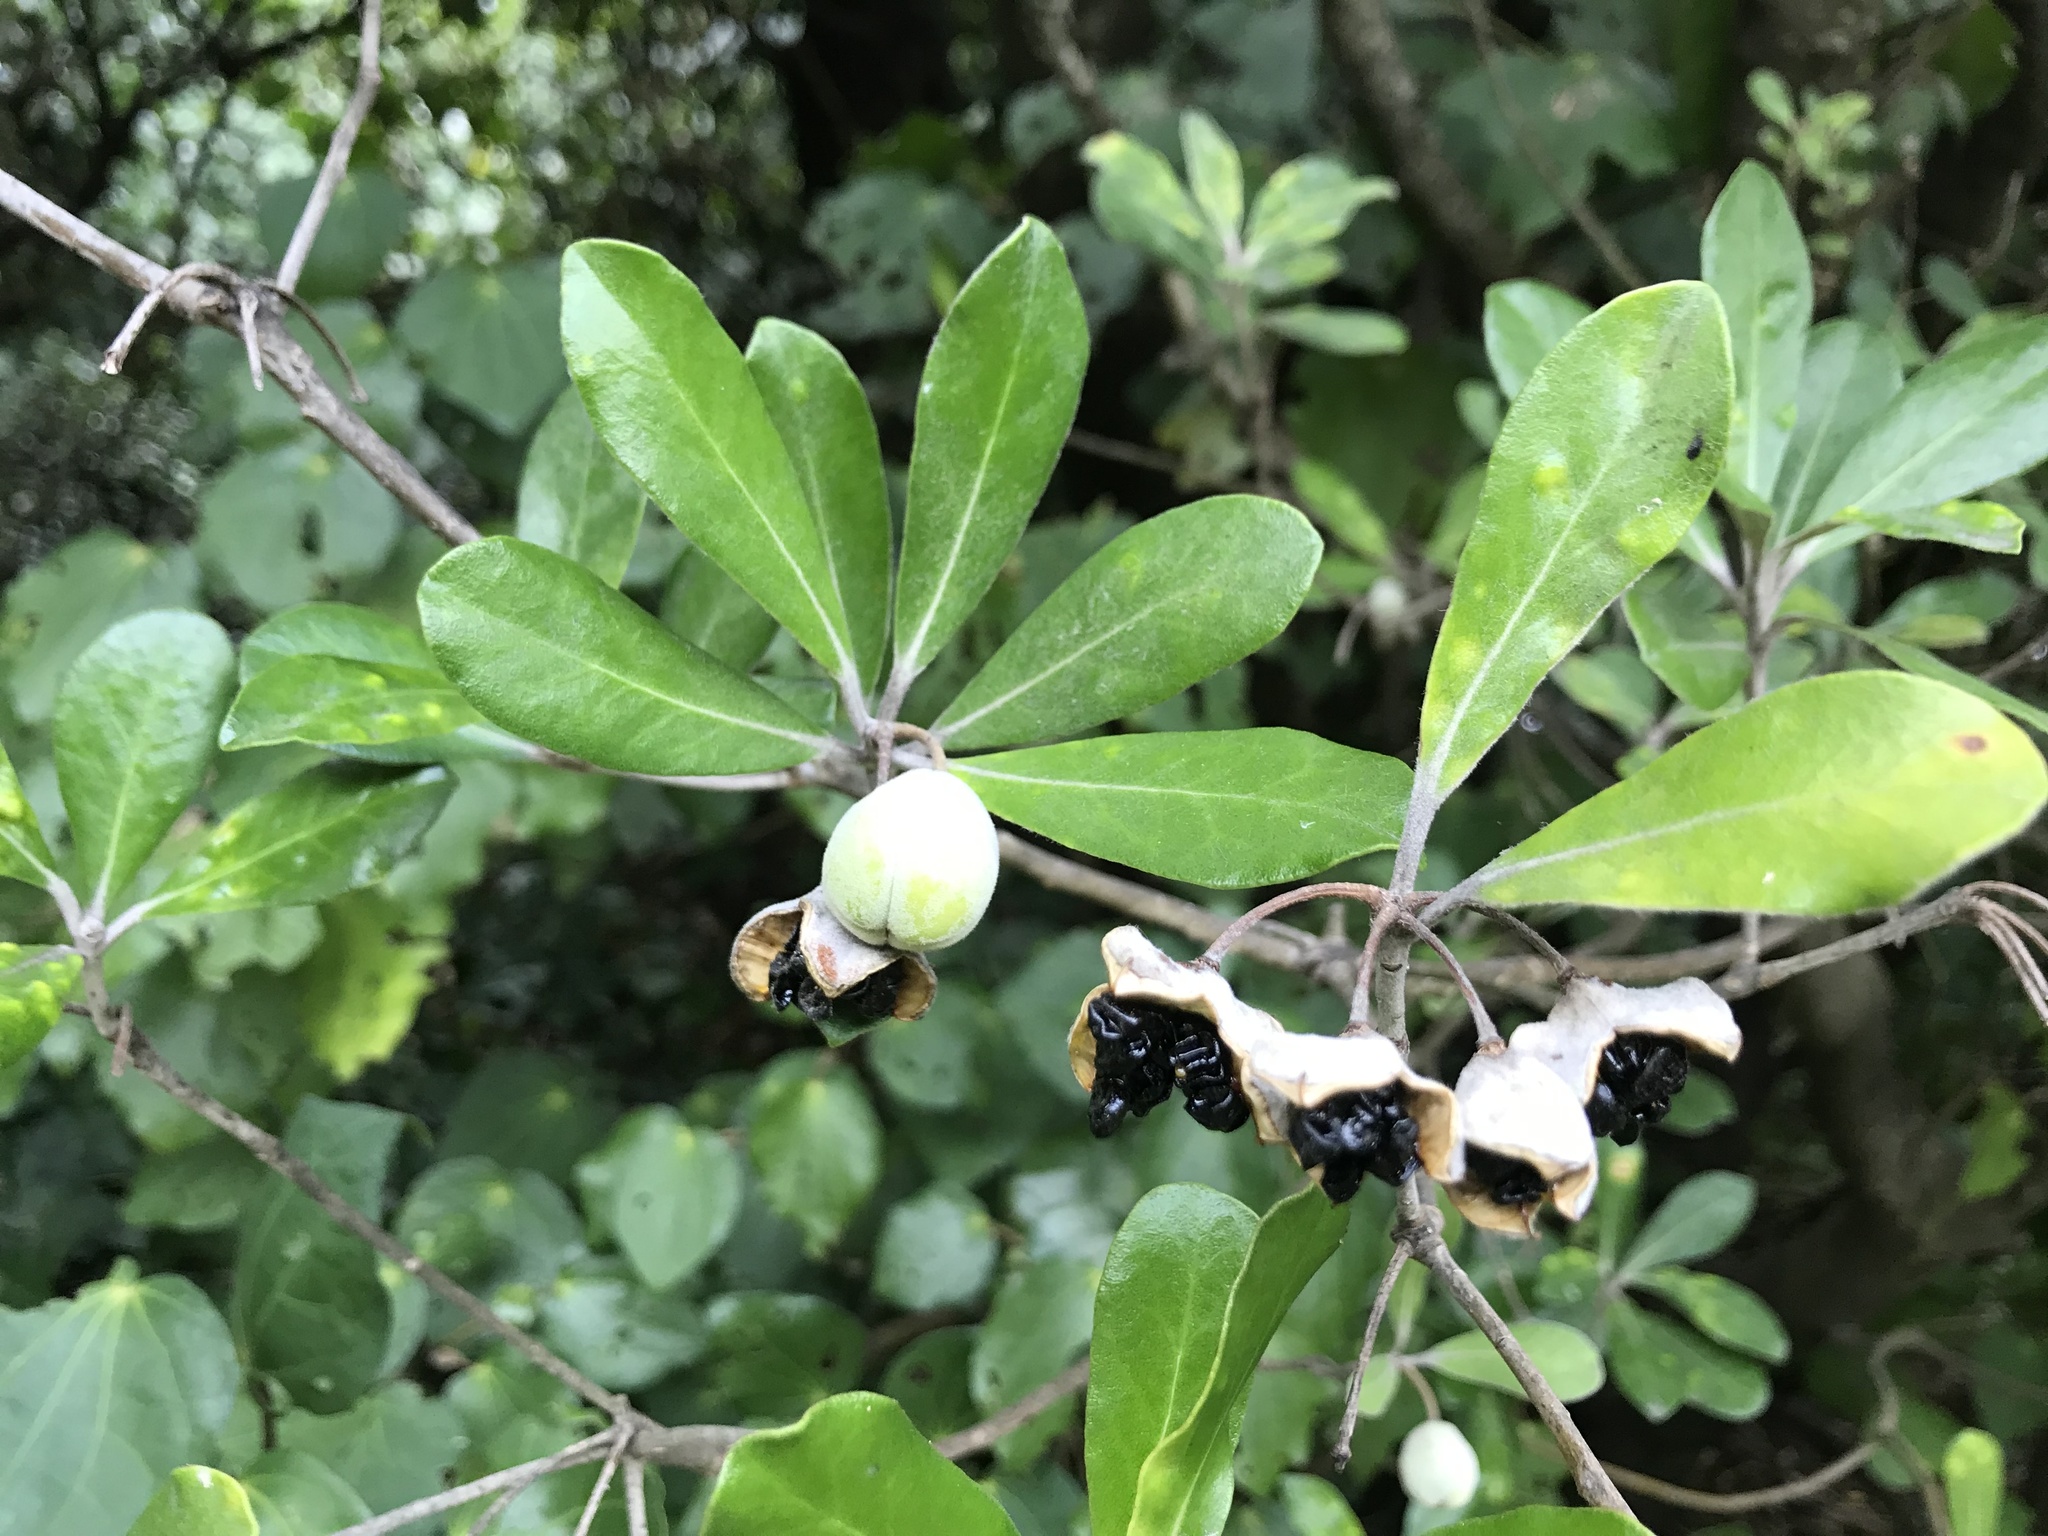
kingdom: Plantae
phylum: Tracheophyta
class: Magnoliopsida
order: Apiales
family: Pittosporaceae
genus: Pittosporum
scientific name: Pittosporum crassifolium
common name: Karo
